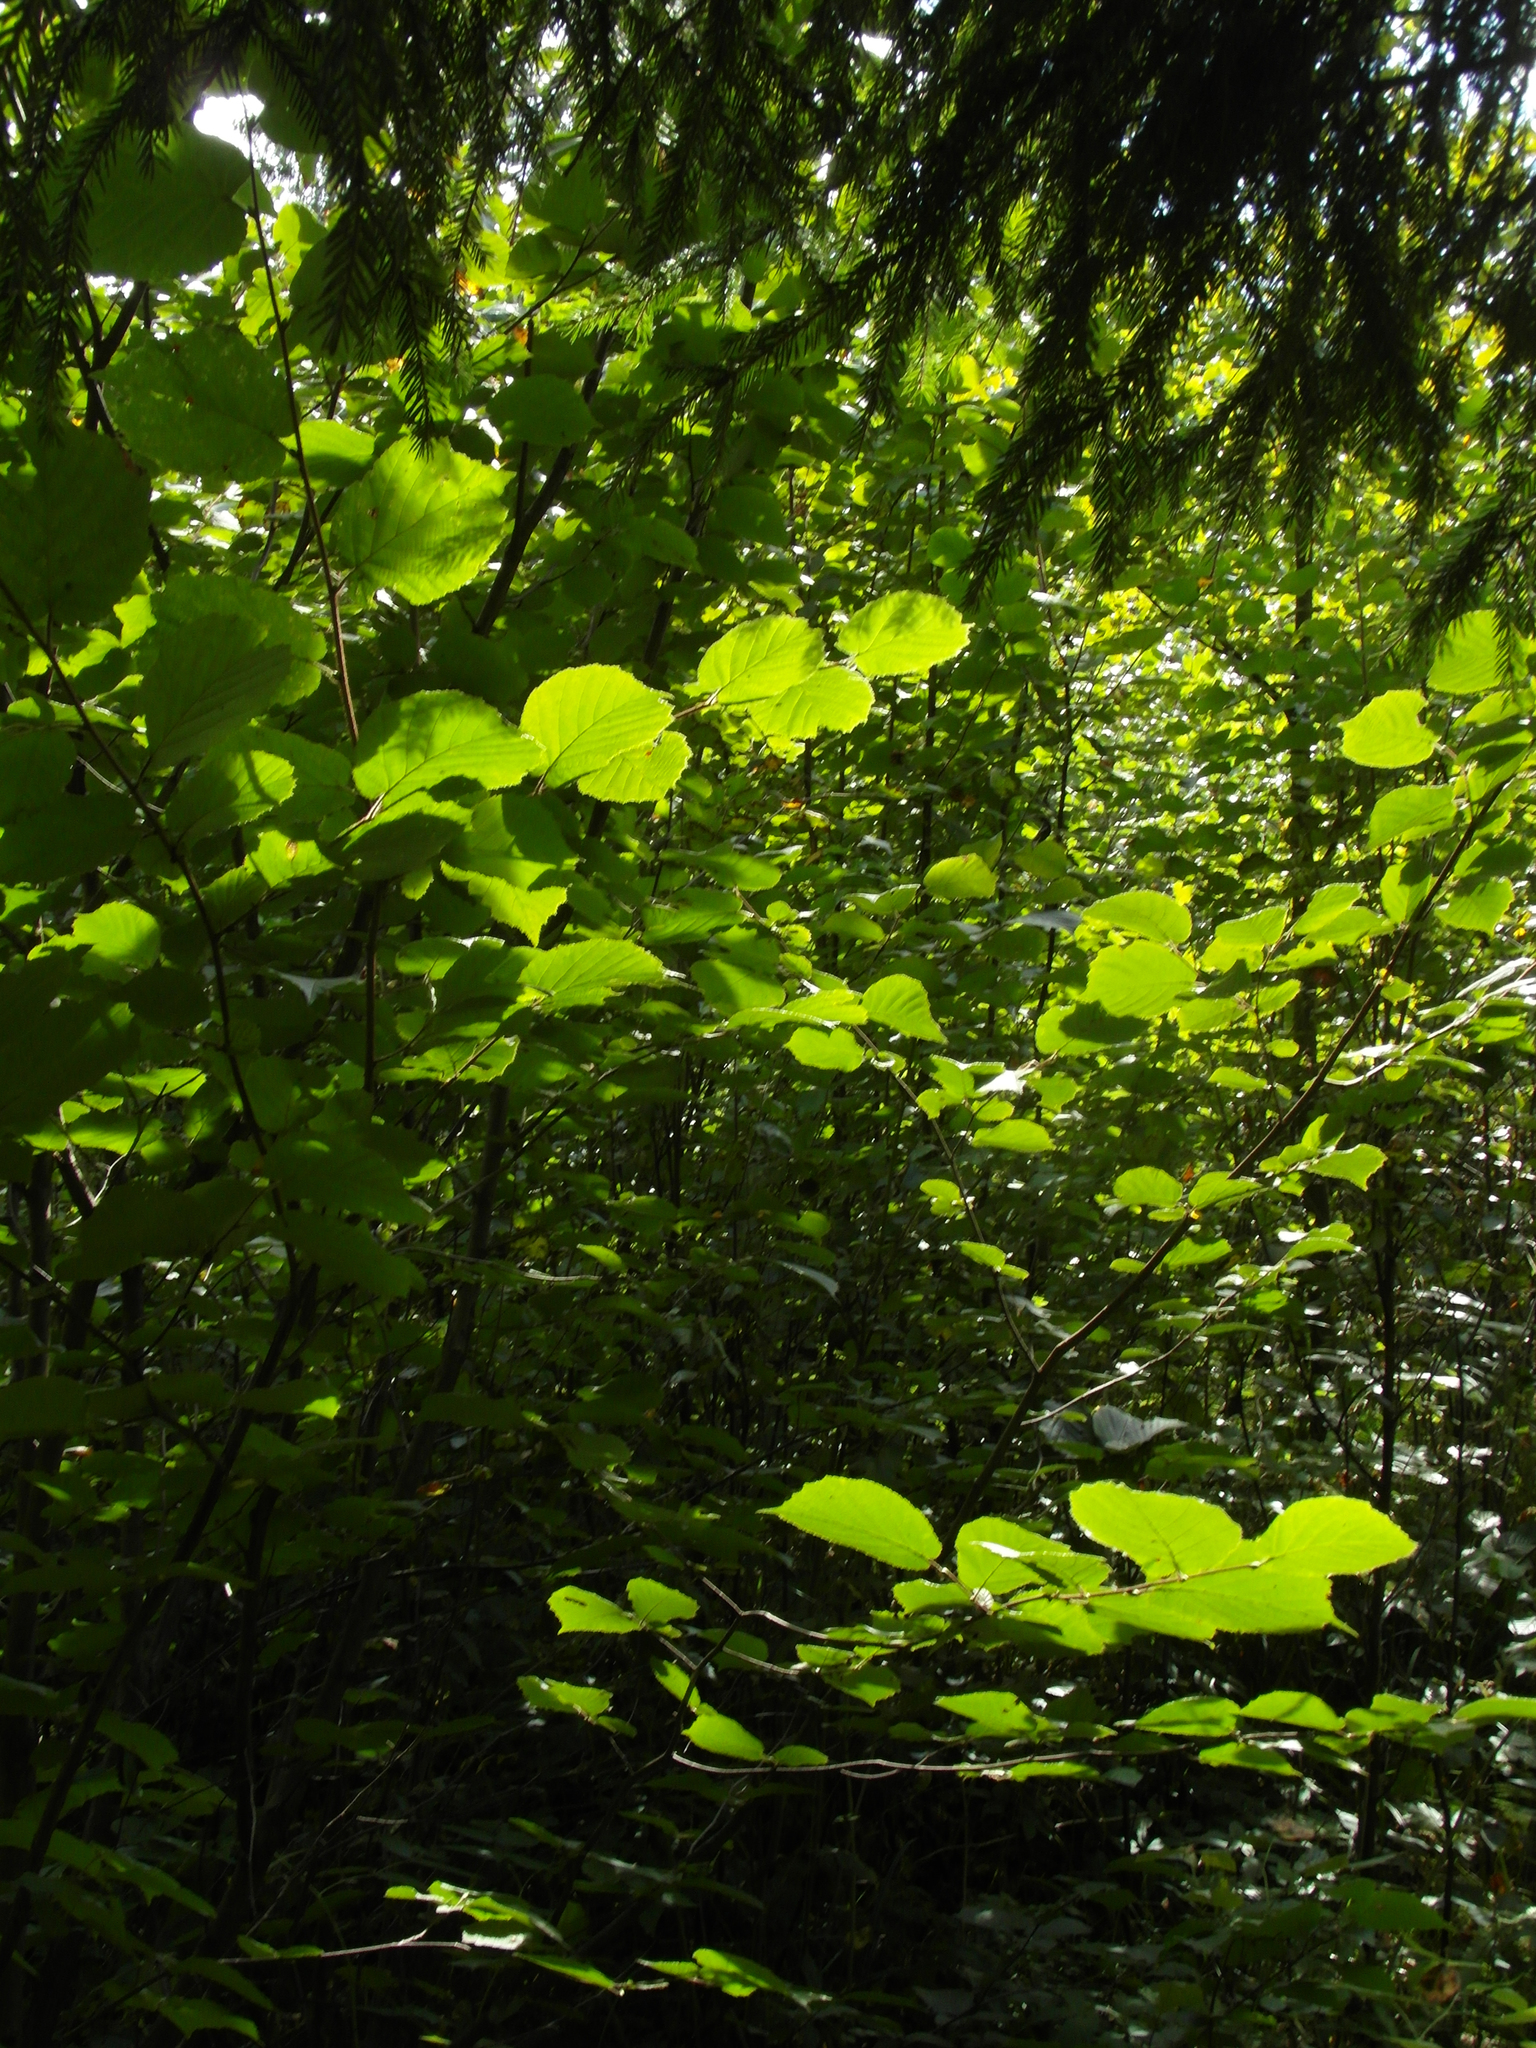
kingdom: Plantae
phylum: Tracheophyta
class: Magnoliopsida
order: Fagales
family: Betulaceae
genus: Corylus
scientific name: Corylus avellana
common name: European hazel
